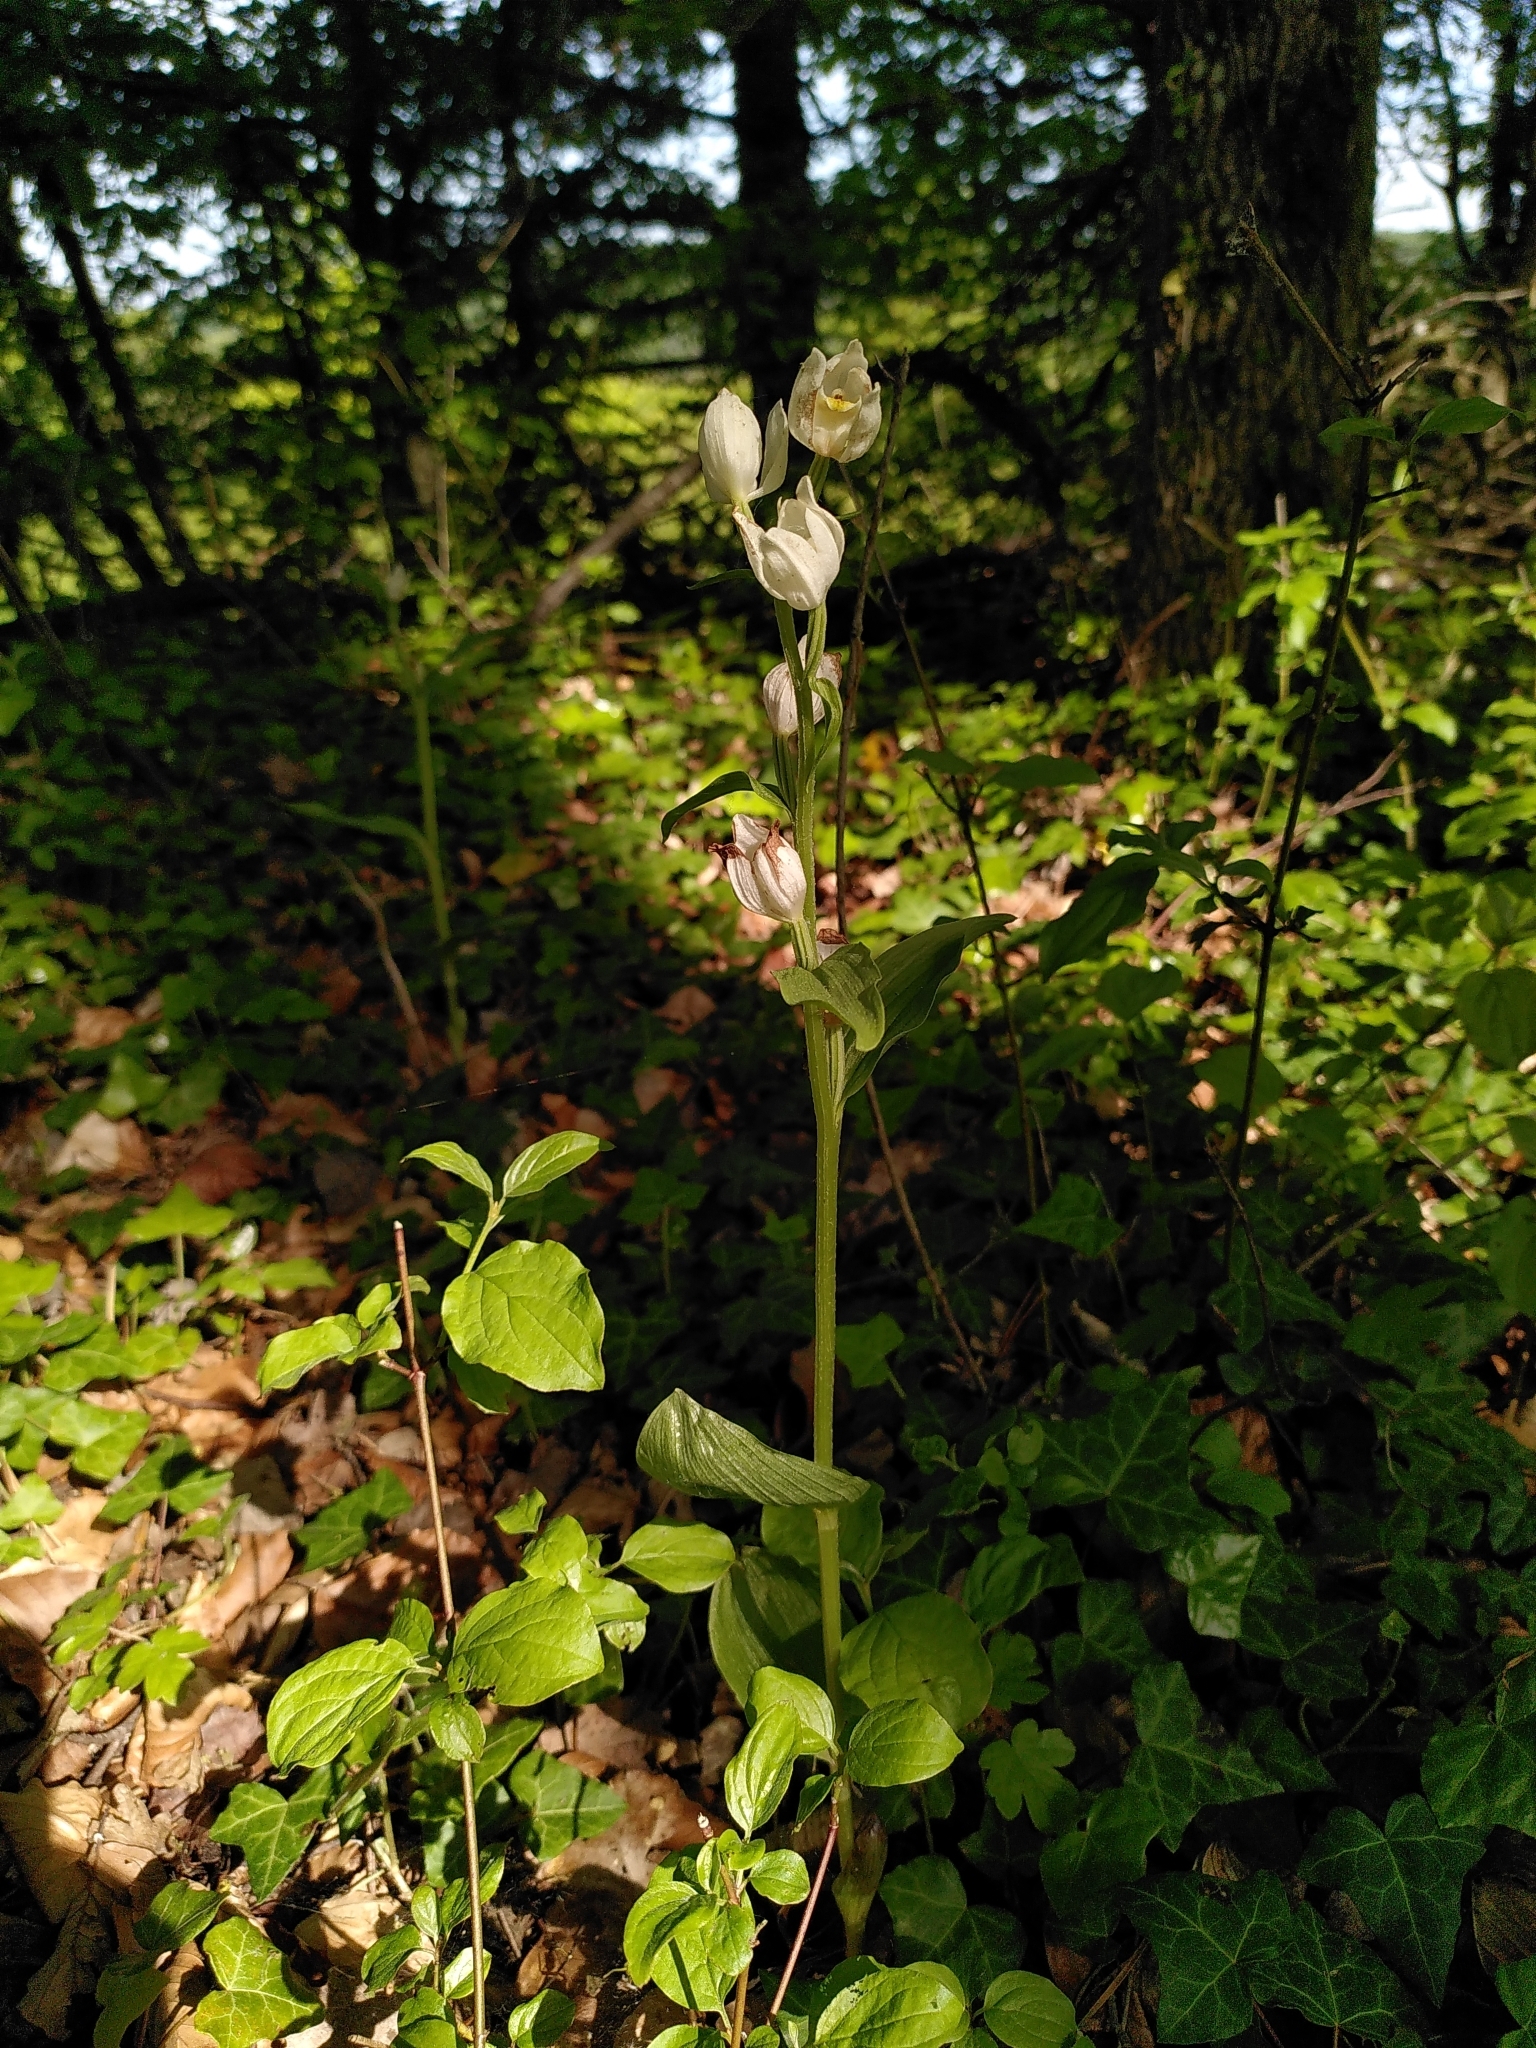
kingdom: Plantae
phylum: Tracheophyta
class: Liliopsida
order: Asparagales
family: Orchidaceae
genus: Cephalanthera
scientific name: Cephalanthera damasonium
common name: White helleborine
